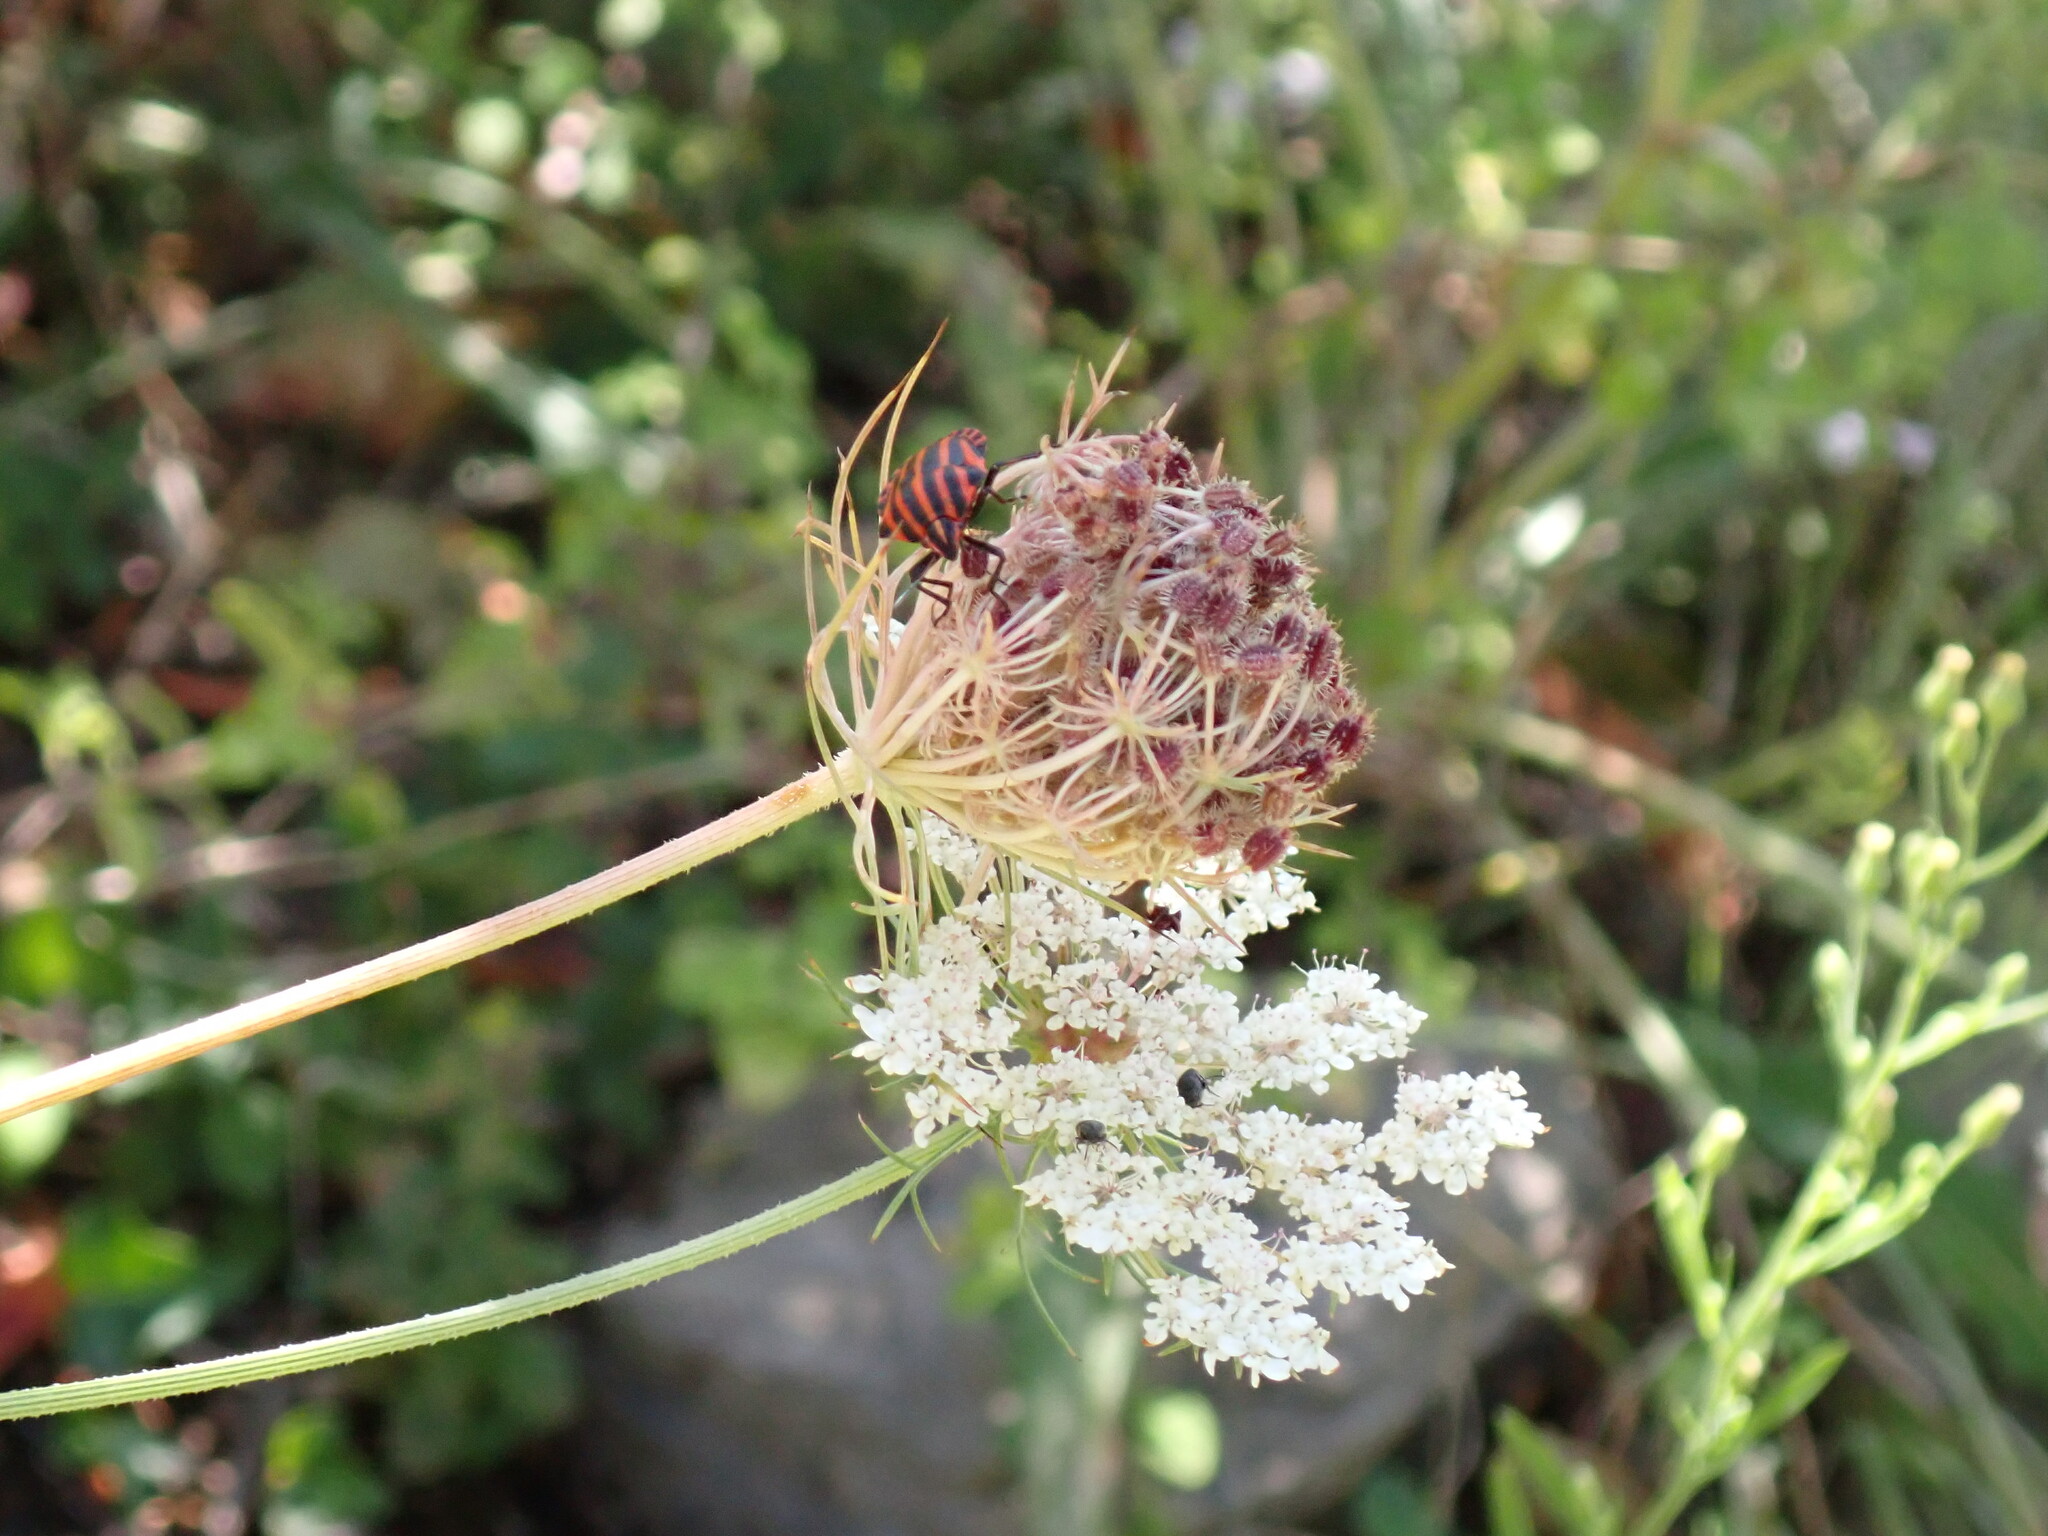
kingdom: Animalia
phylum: Arthropoda
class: Insecta
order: Hemiptera
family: Pentatomidae
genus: Graphosoma
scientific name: Graphosoma italicum
